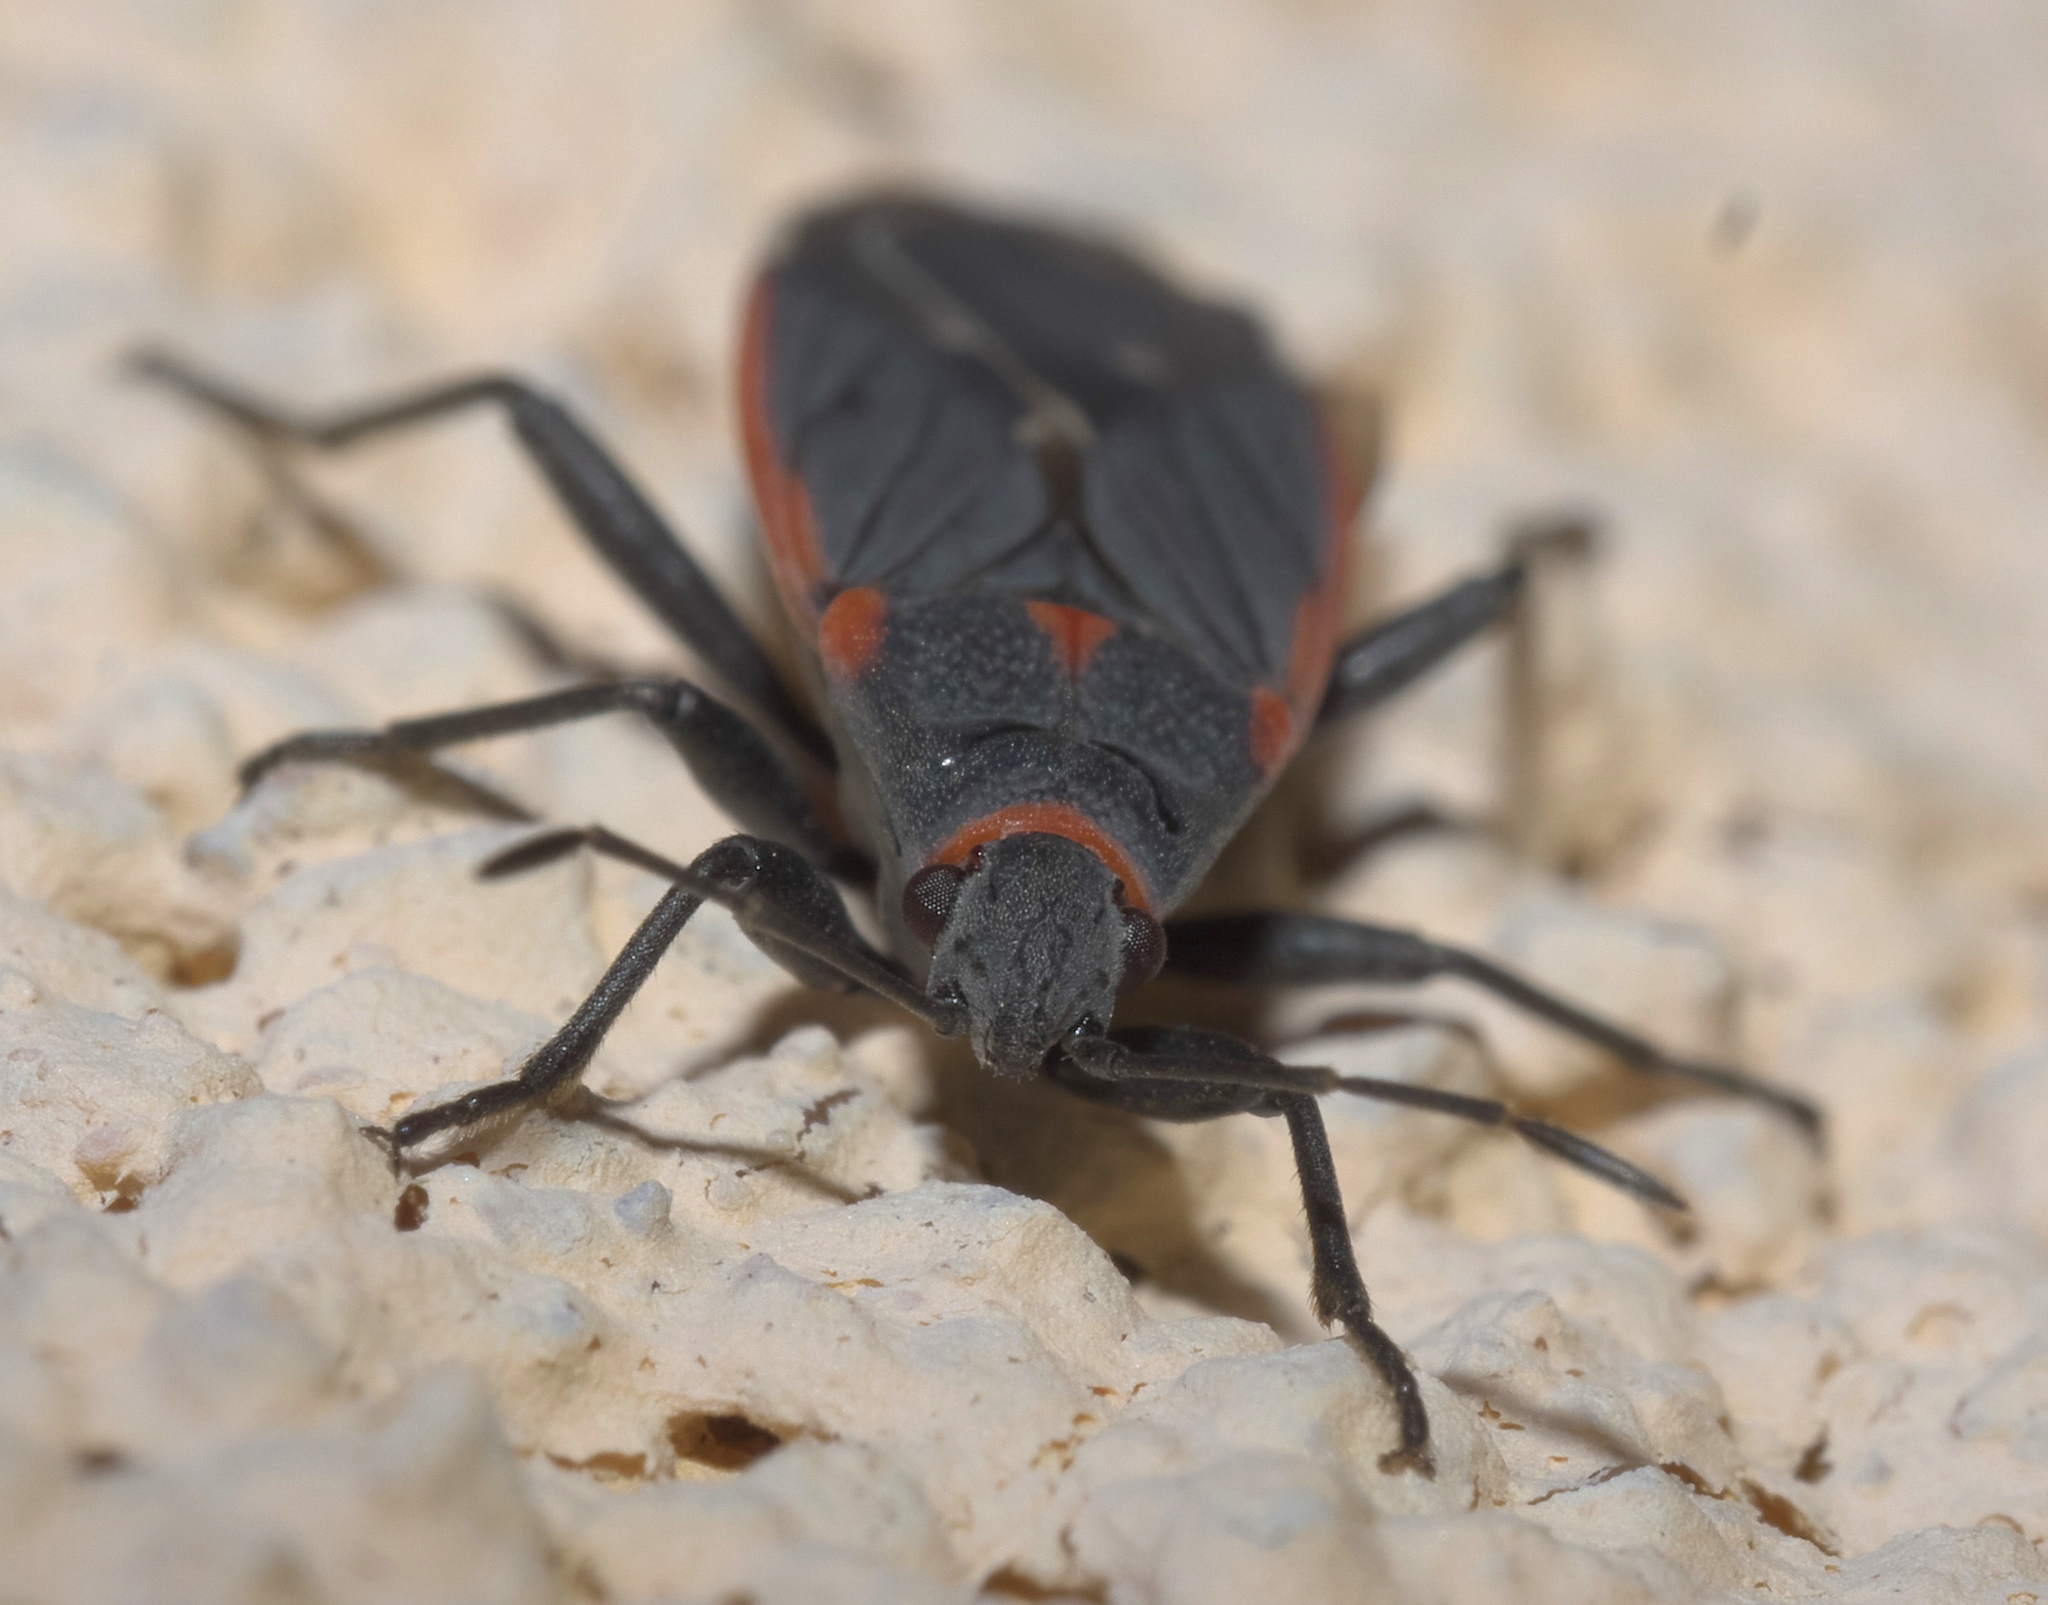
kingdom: Animalia
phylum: Arthropoda
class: Insecta
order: Hemiptera
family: Lygaeidae
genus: Melacoryphus
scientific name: Melacoryphus lateralis
